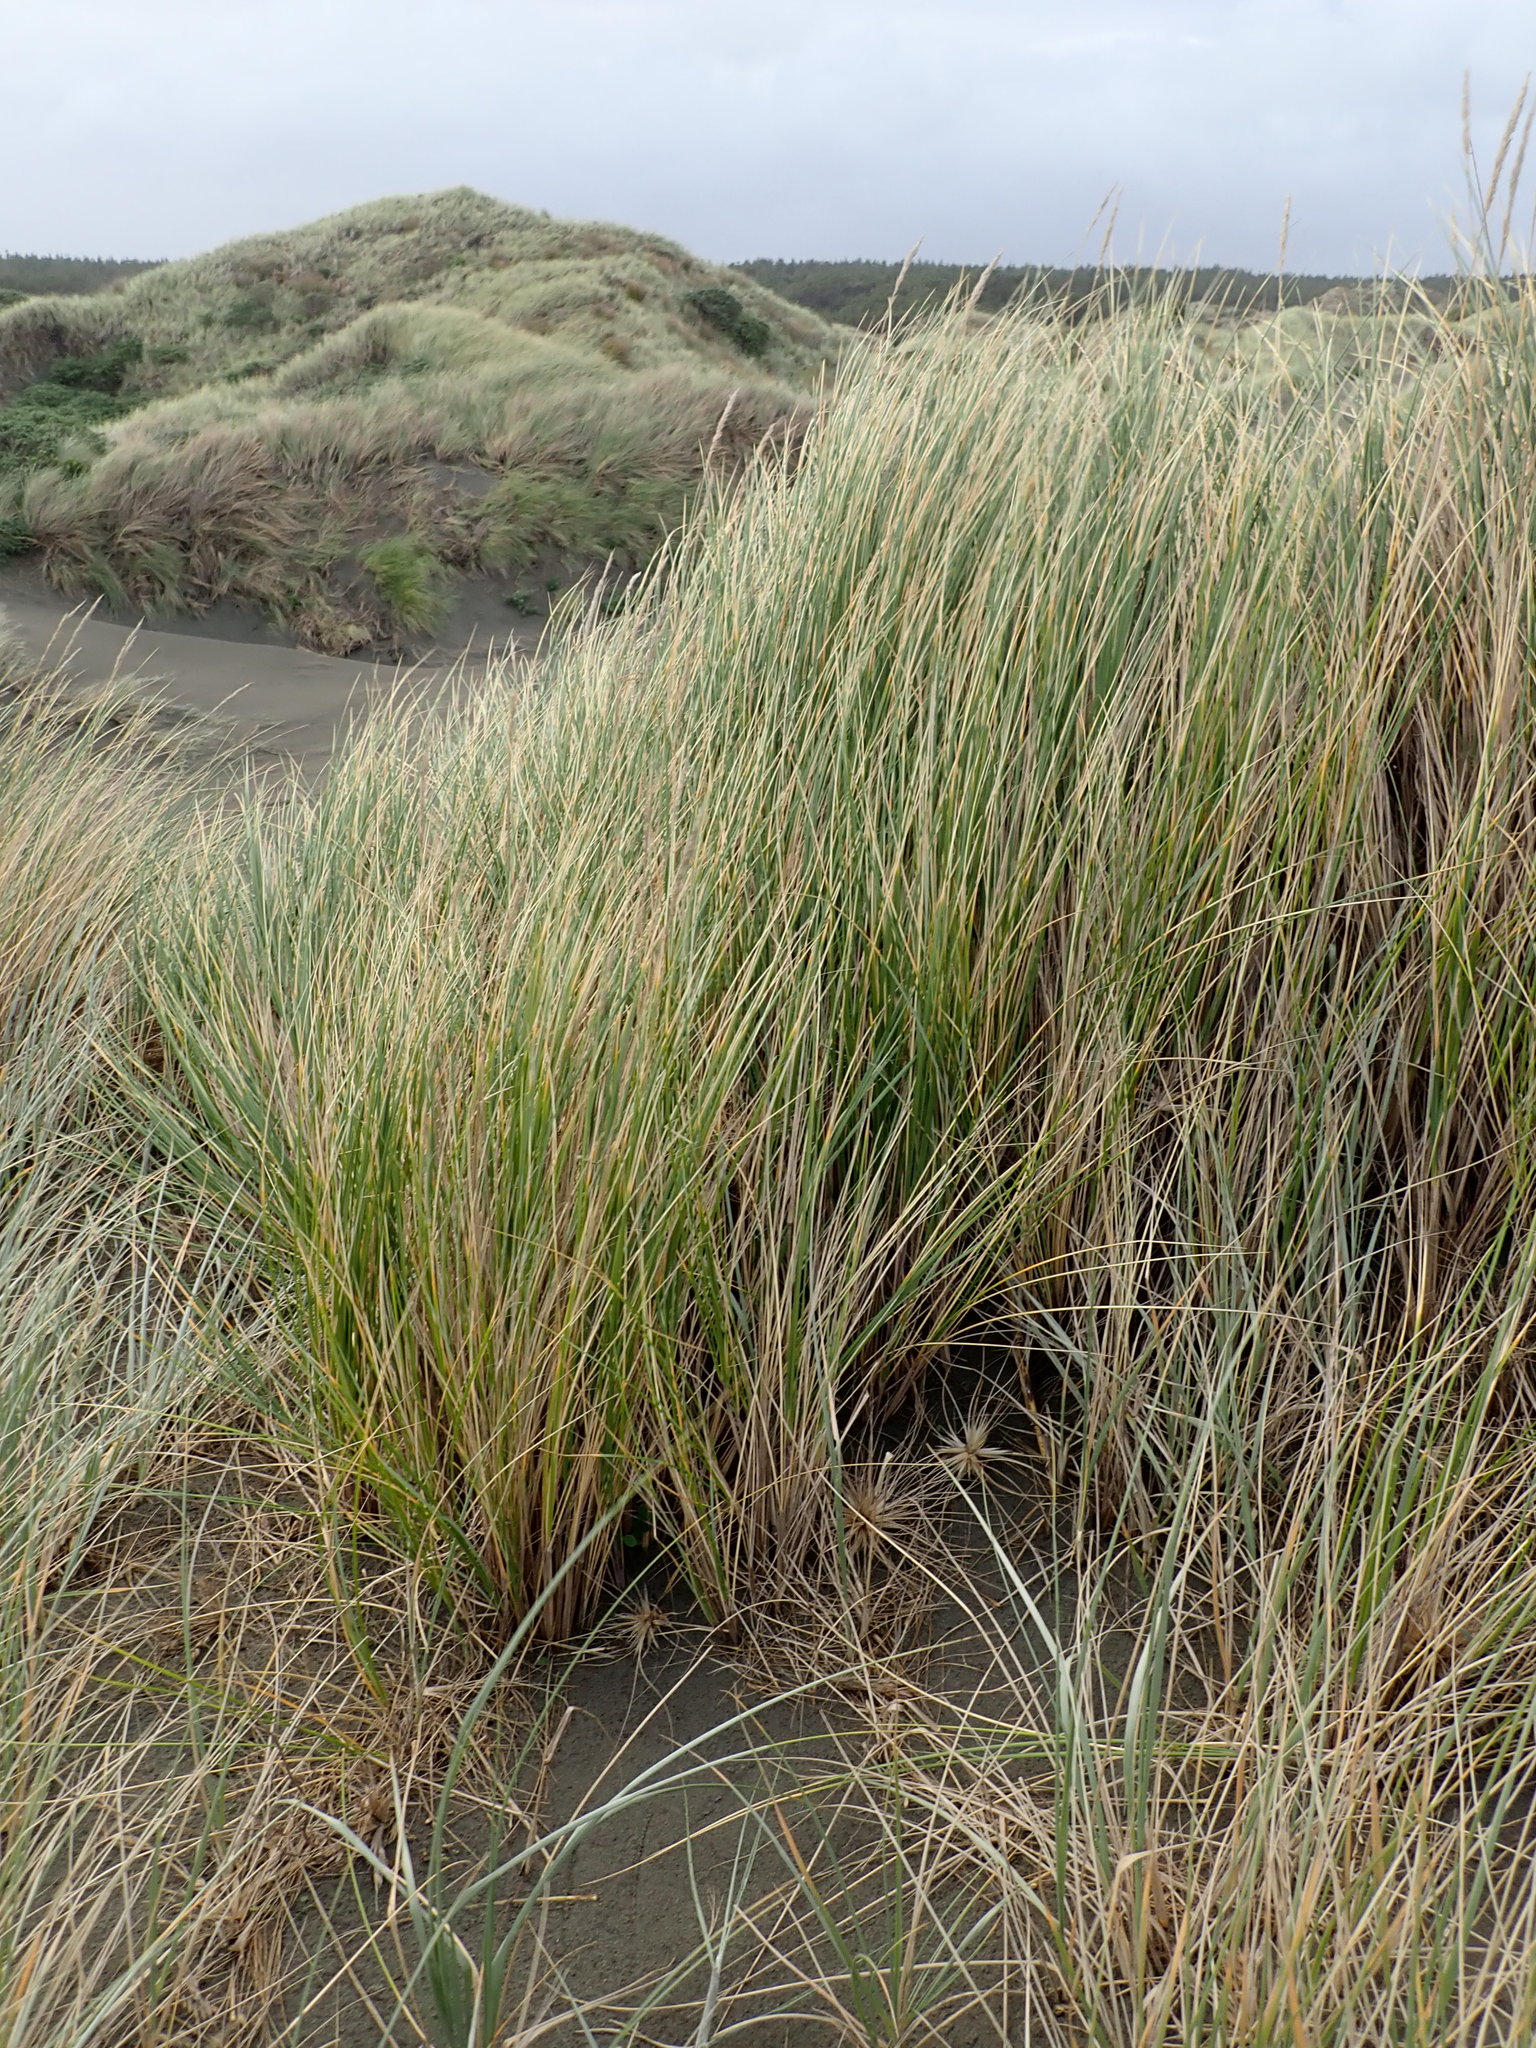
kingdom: Plantae
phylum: Tracheophyta
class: Liliopsida
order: Poales
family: Poaceae
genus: Calamagrostis
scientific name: Calamagrostis arenaria
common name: European beachgrass
